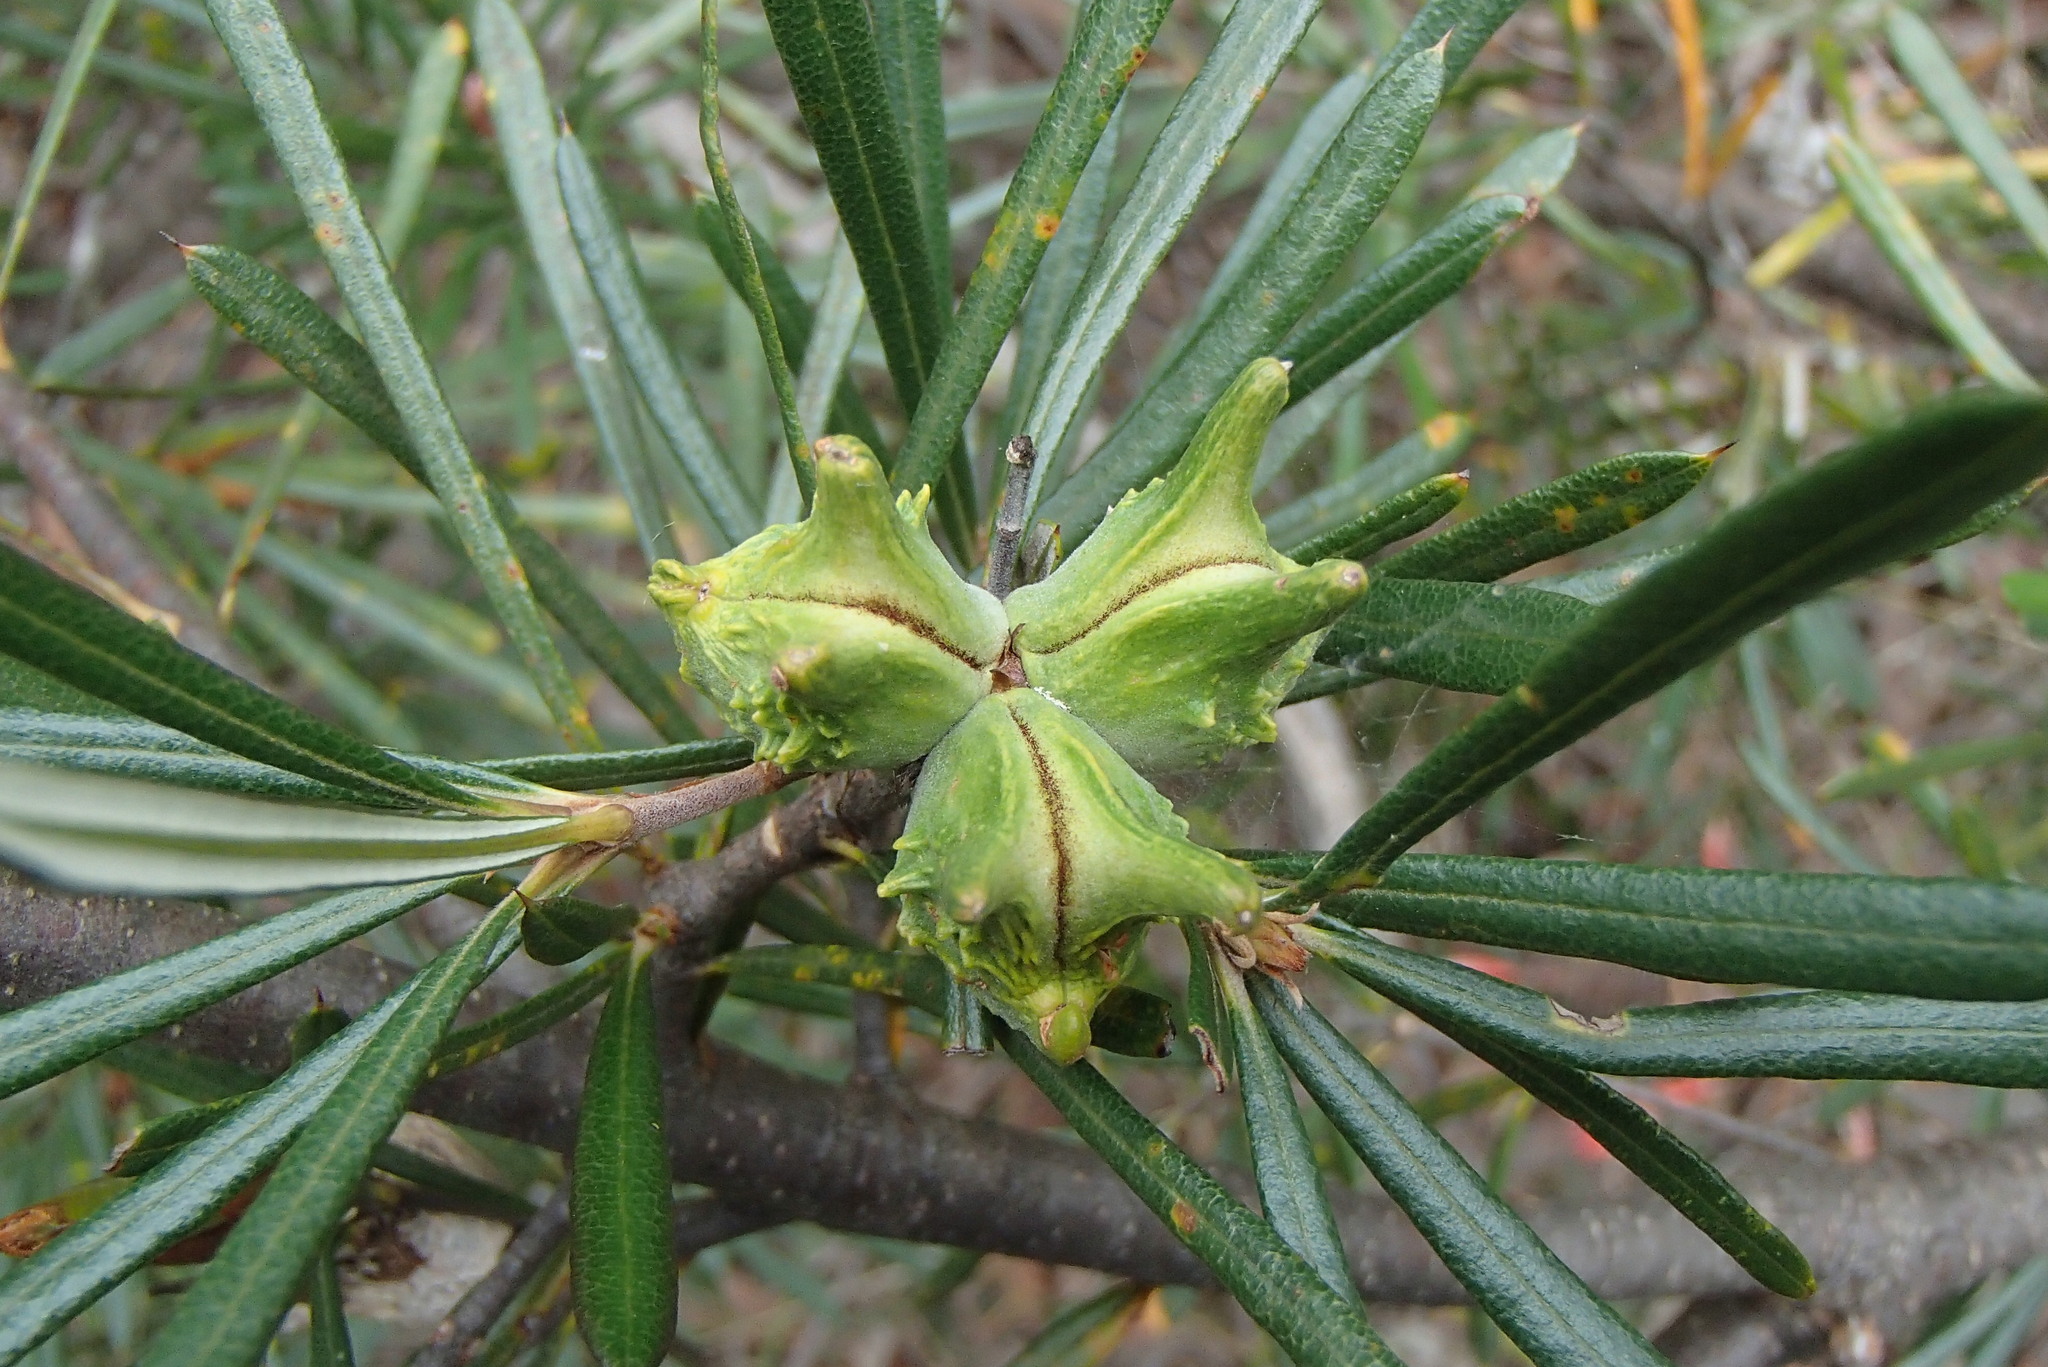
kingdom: Plantae
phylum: Tracheophyta
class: Magnoliopsida
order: Proteales
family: Proteaceae
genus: Lambertia
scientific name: Lambertia formosa
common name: Mountain-devil
